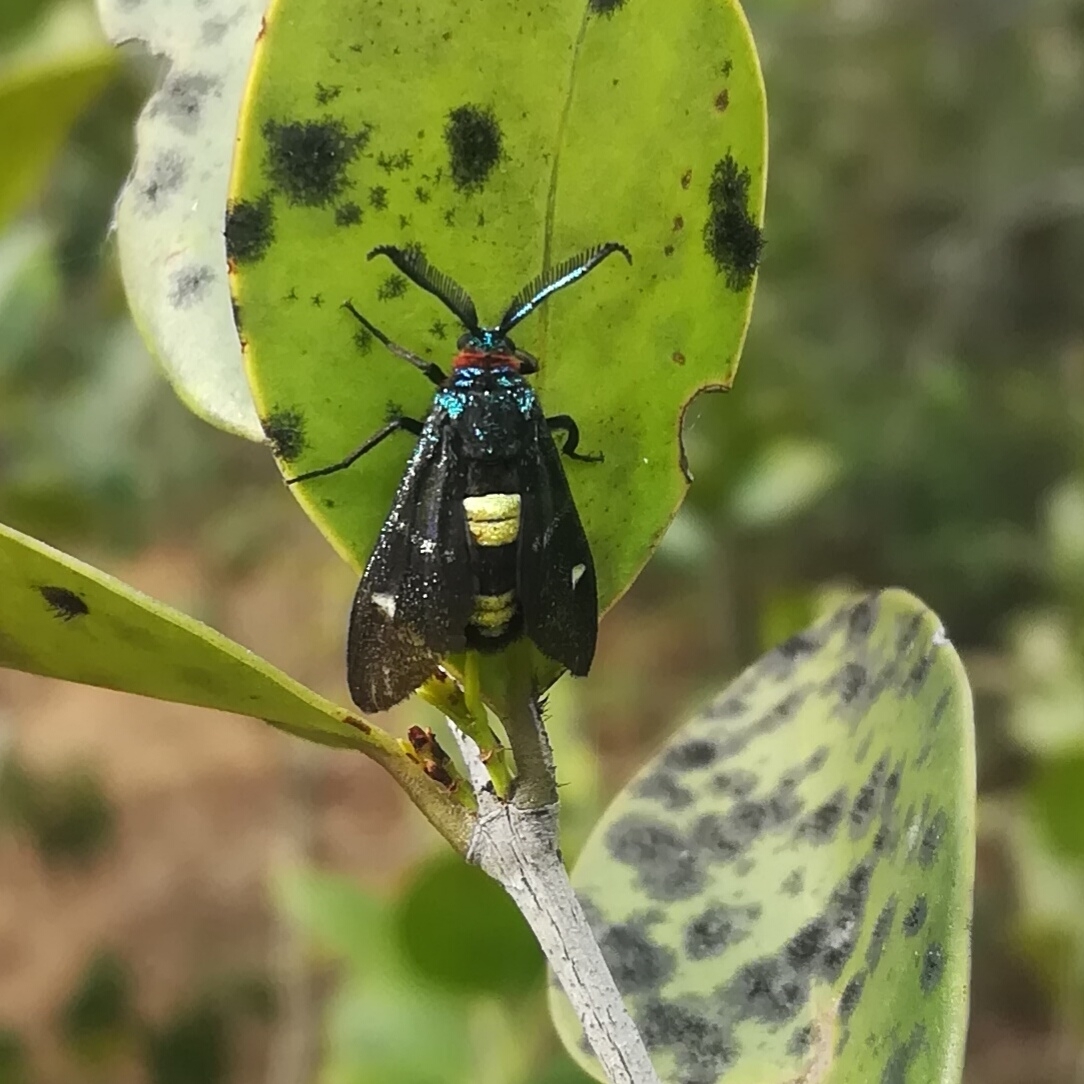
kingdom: Animalia
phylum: Arthropoda
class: Insecta
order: Lepidoptera
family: Zygaenidae
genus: Callizygaena
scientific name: Callizygaena auratus
